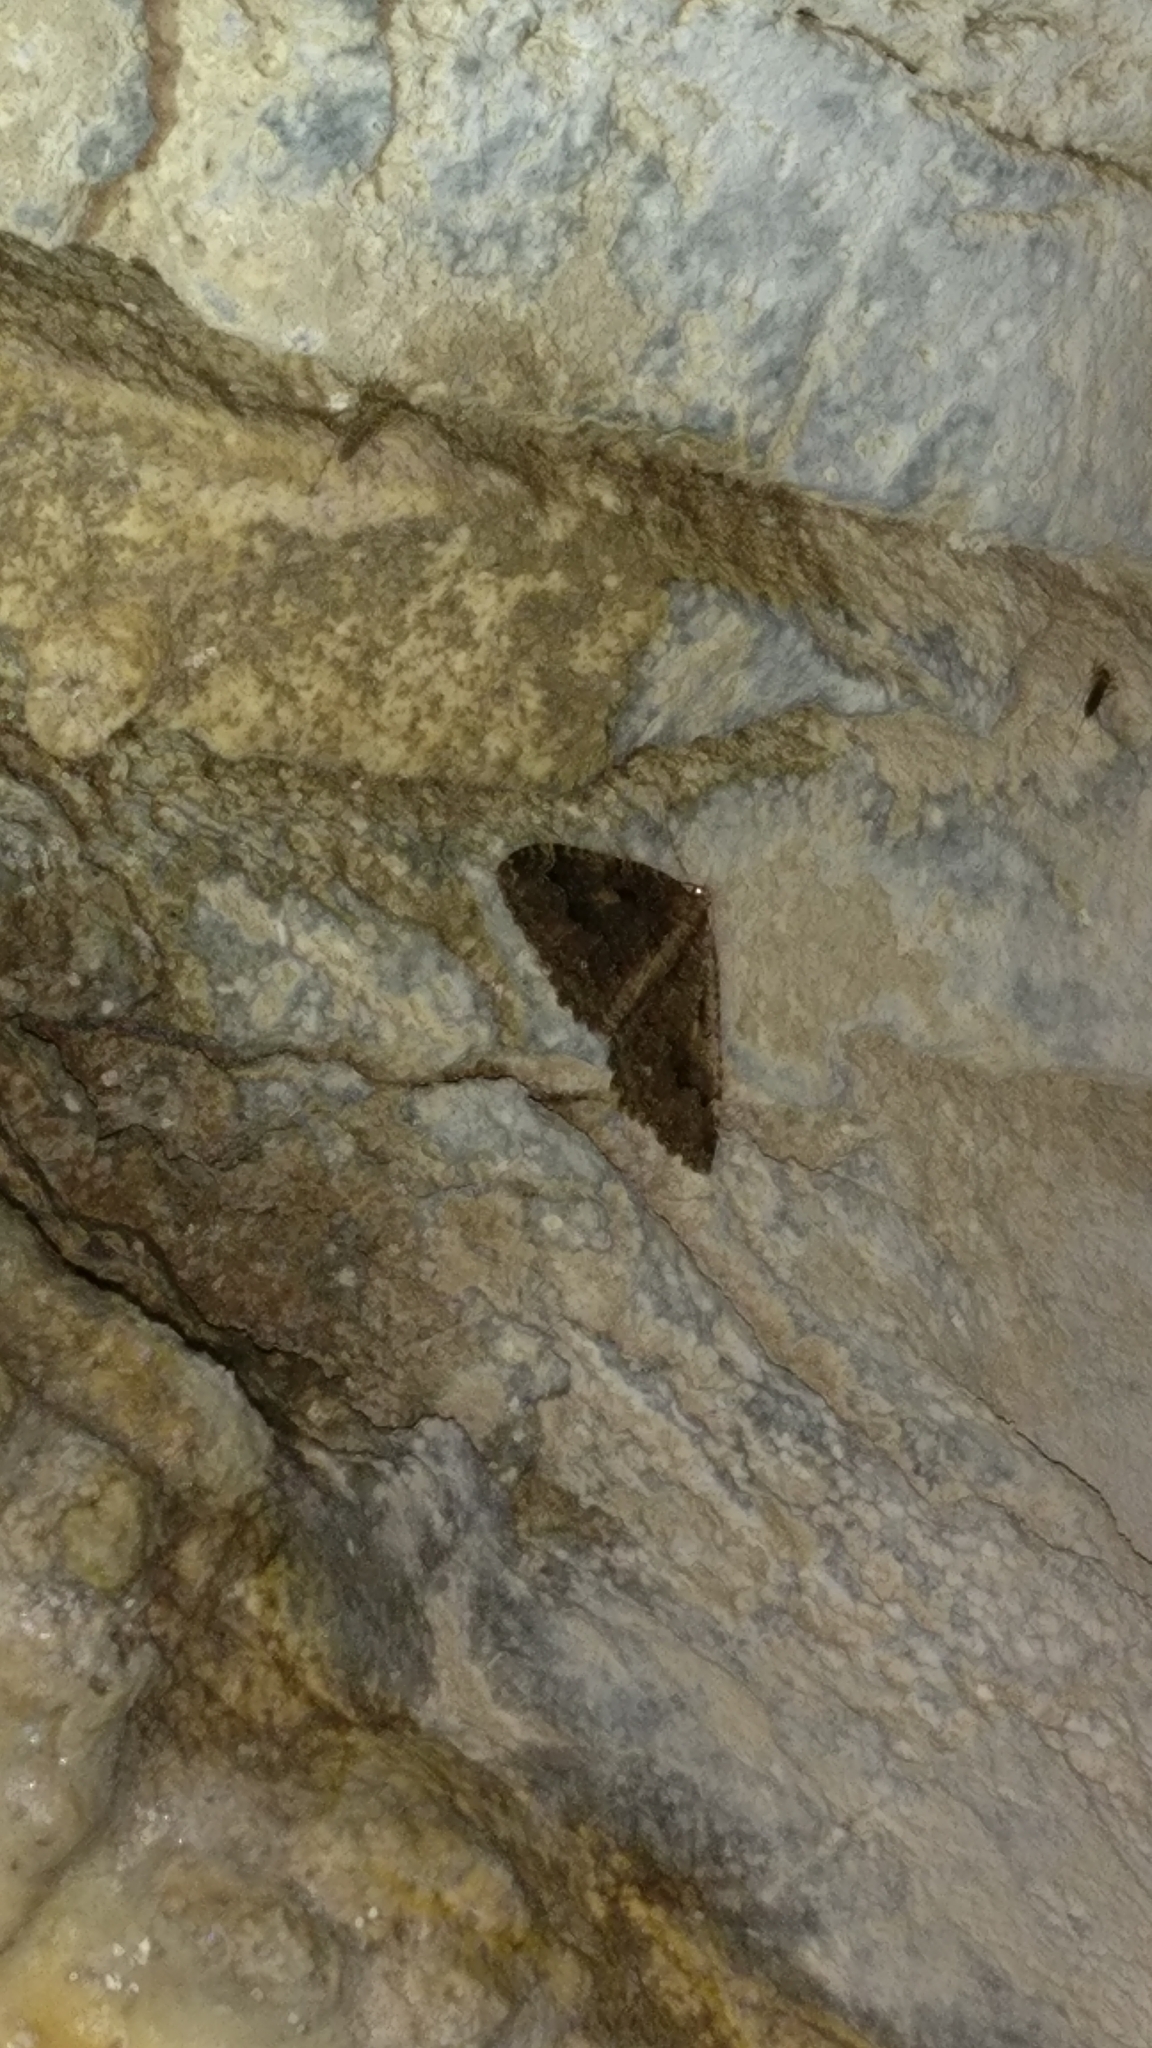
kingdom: Animalia
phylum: Arthropoda
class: Insecta
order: Lepidoptera
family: Geometridae
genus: Triphosa
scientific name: Triphosa dubitata
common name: Tissue
